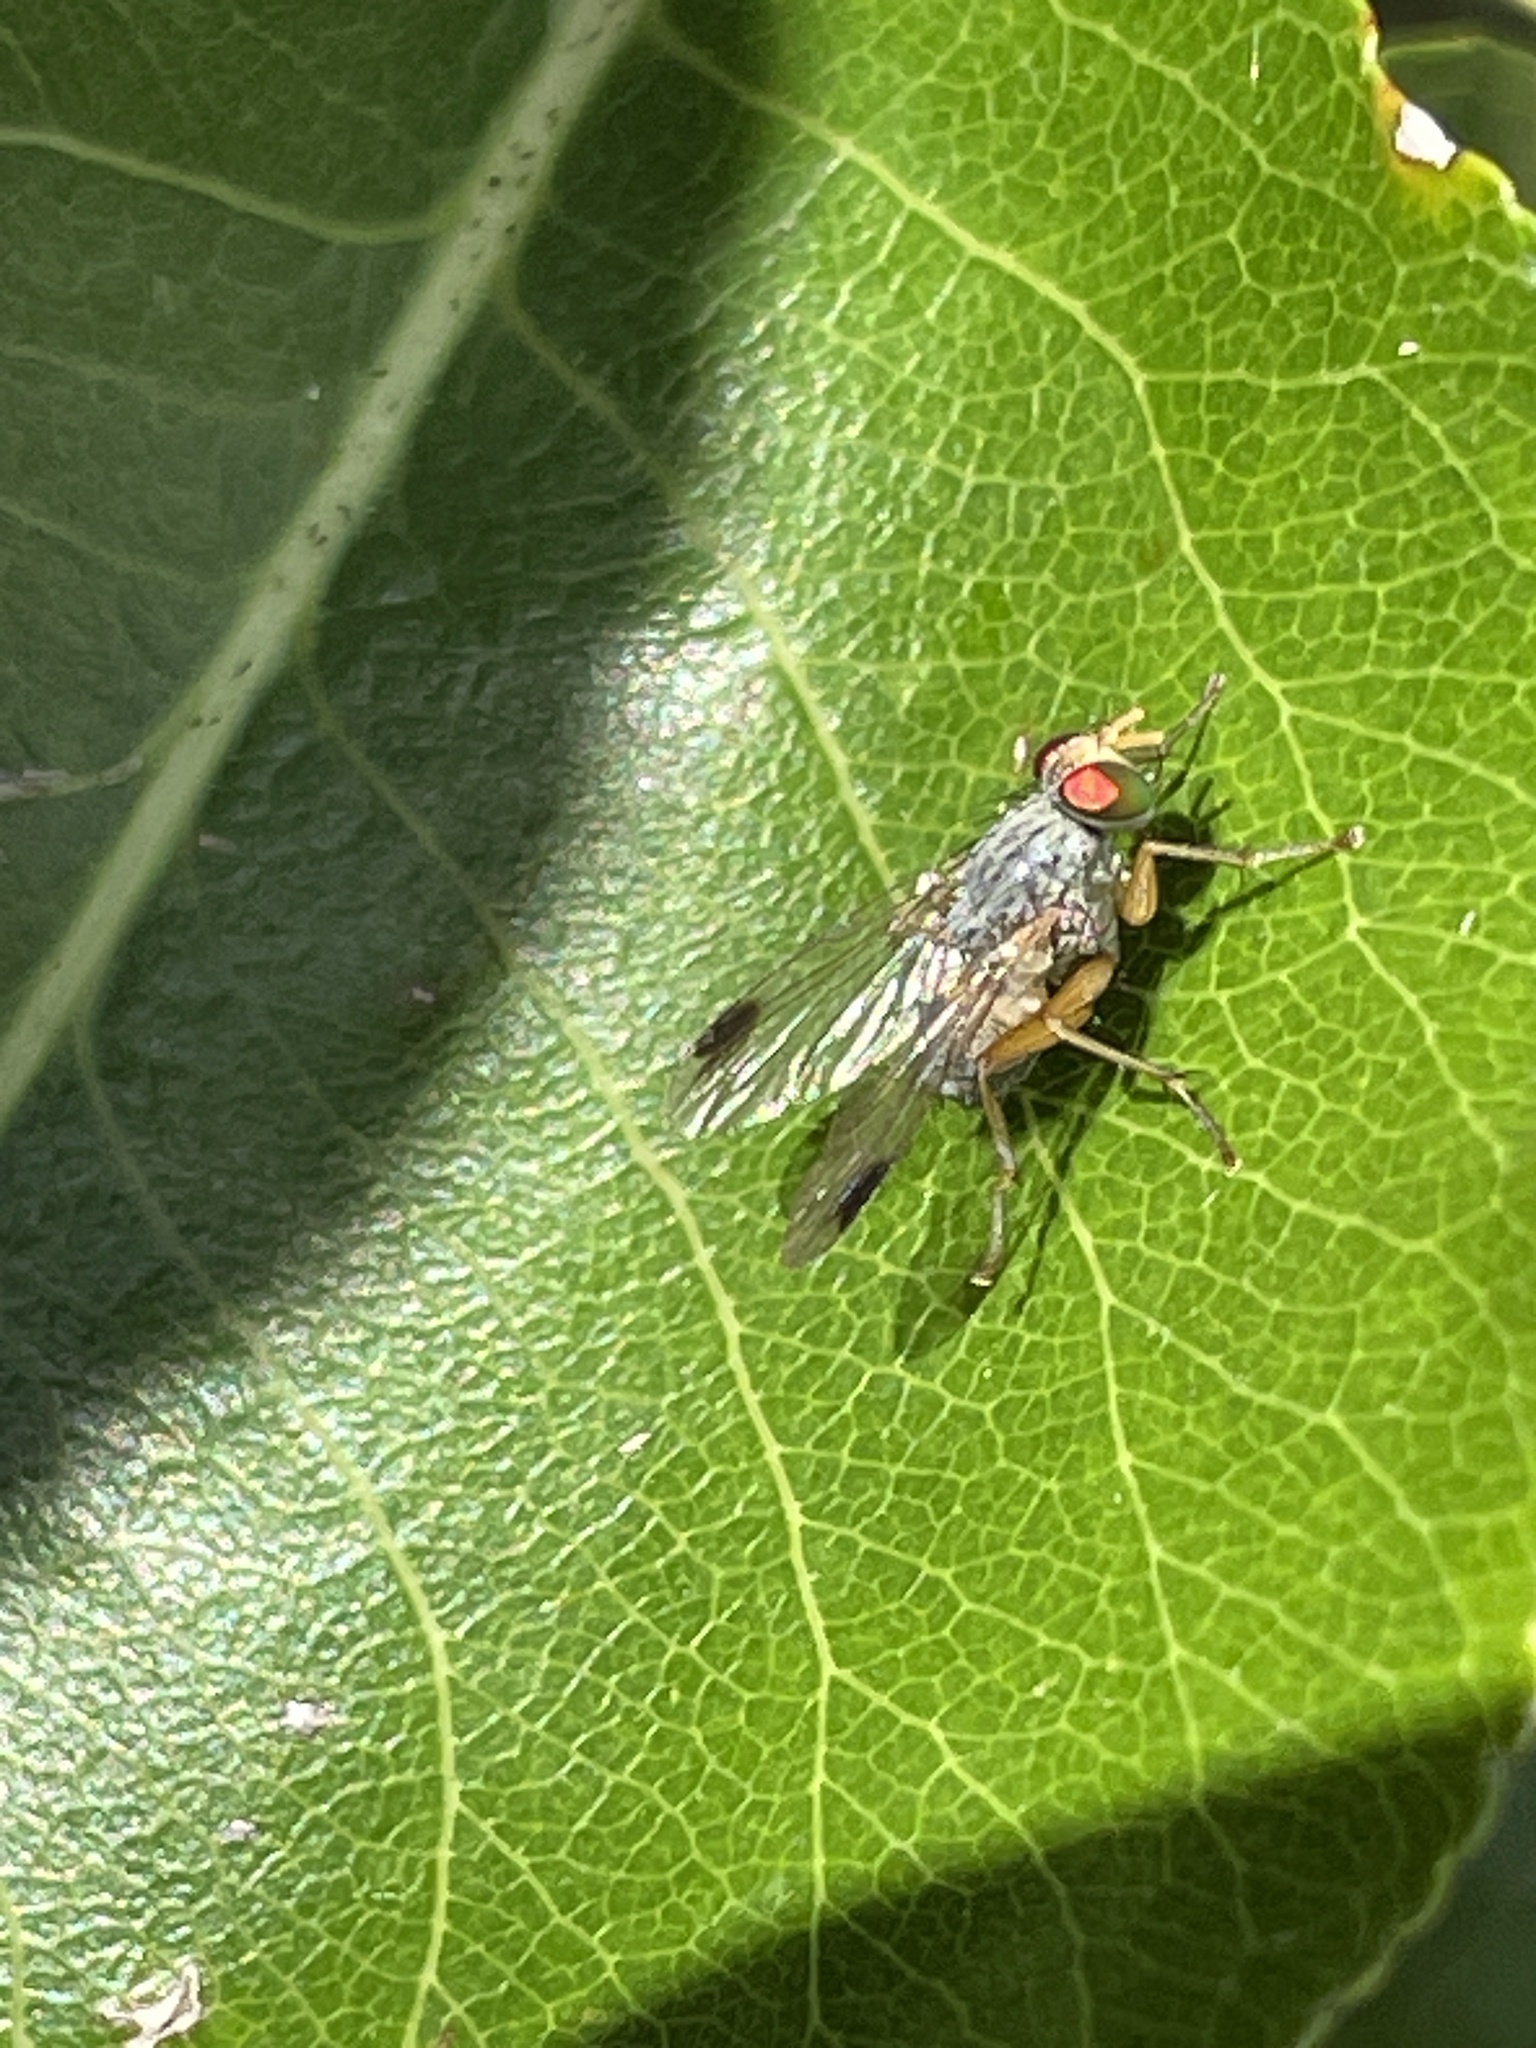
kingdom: Animalia
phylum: Arthropoda
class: Insecta
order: Diptera
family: Muscidae
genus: Pygophora
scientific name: Pygophora apicalis
